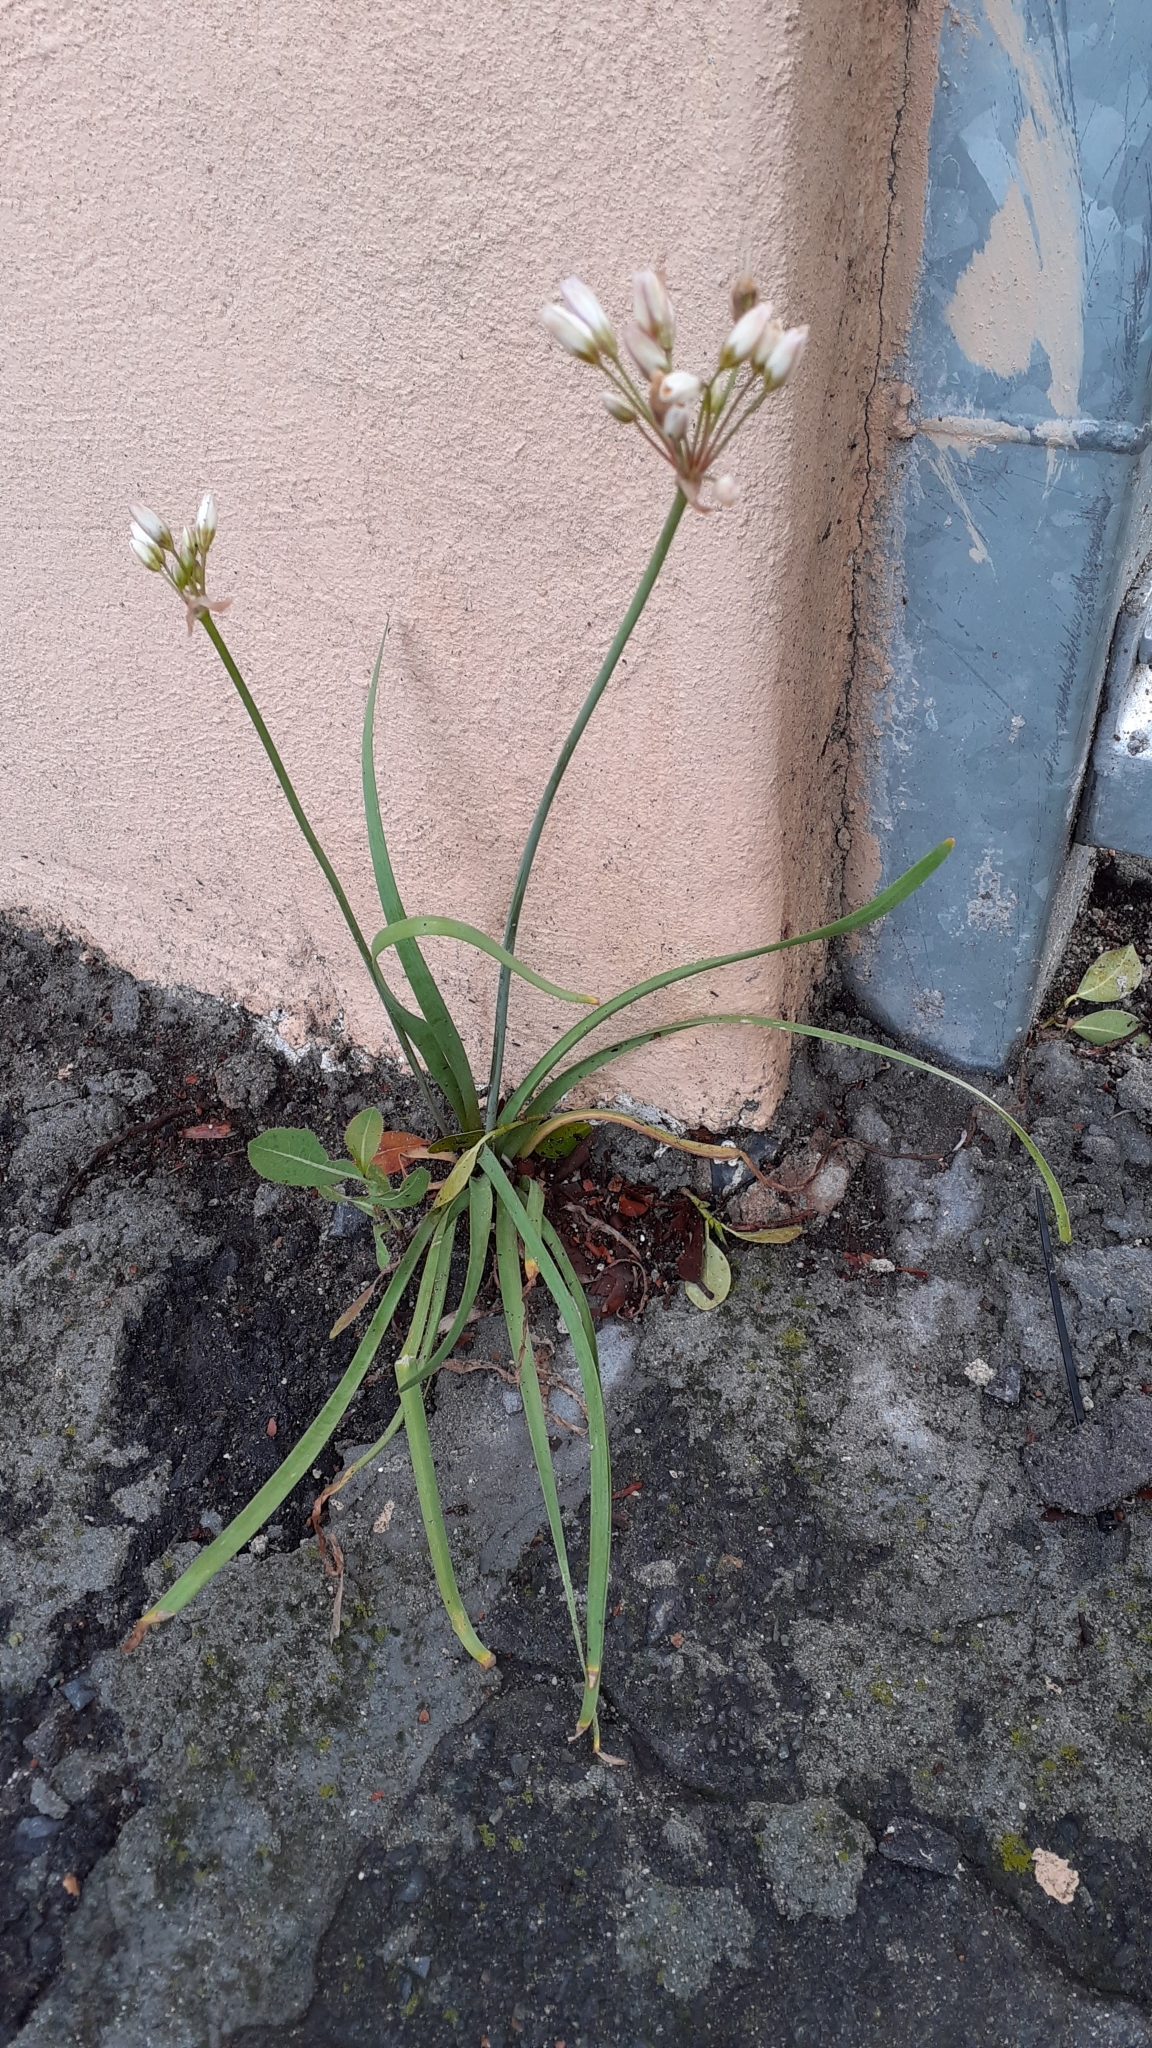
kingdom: Plantae
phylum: Tracheophyta
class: Liliopsida
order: Asparagales
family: Amaryllidaceae
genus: Nothoscordum
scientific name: Nothoscordum gracile
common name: Slender false garlic
